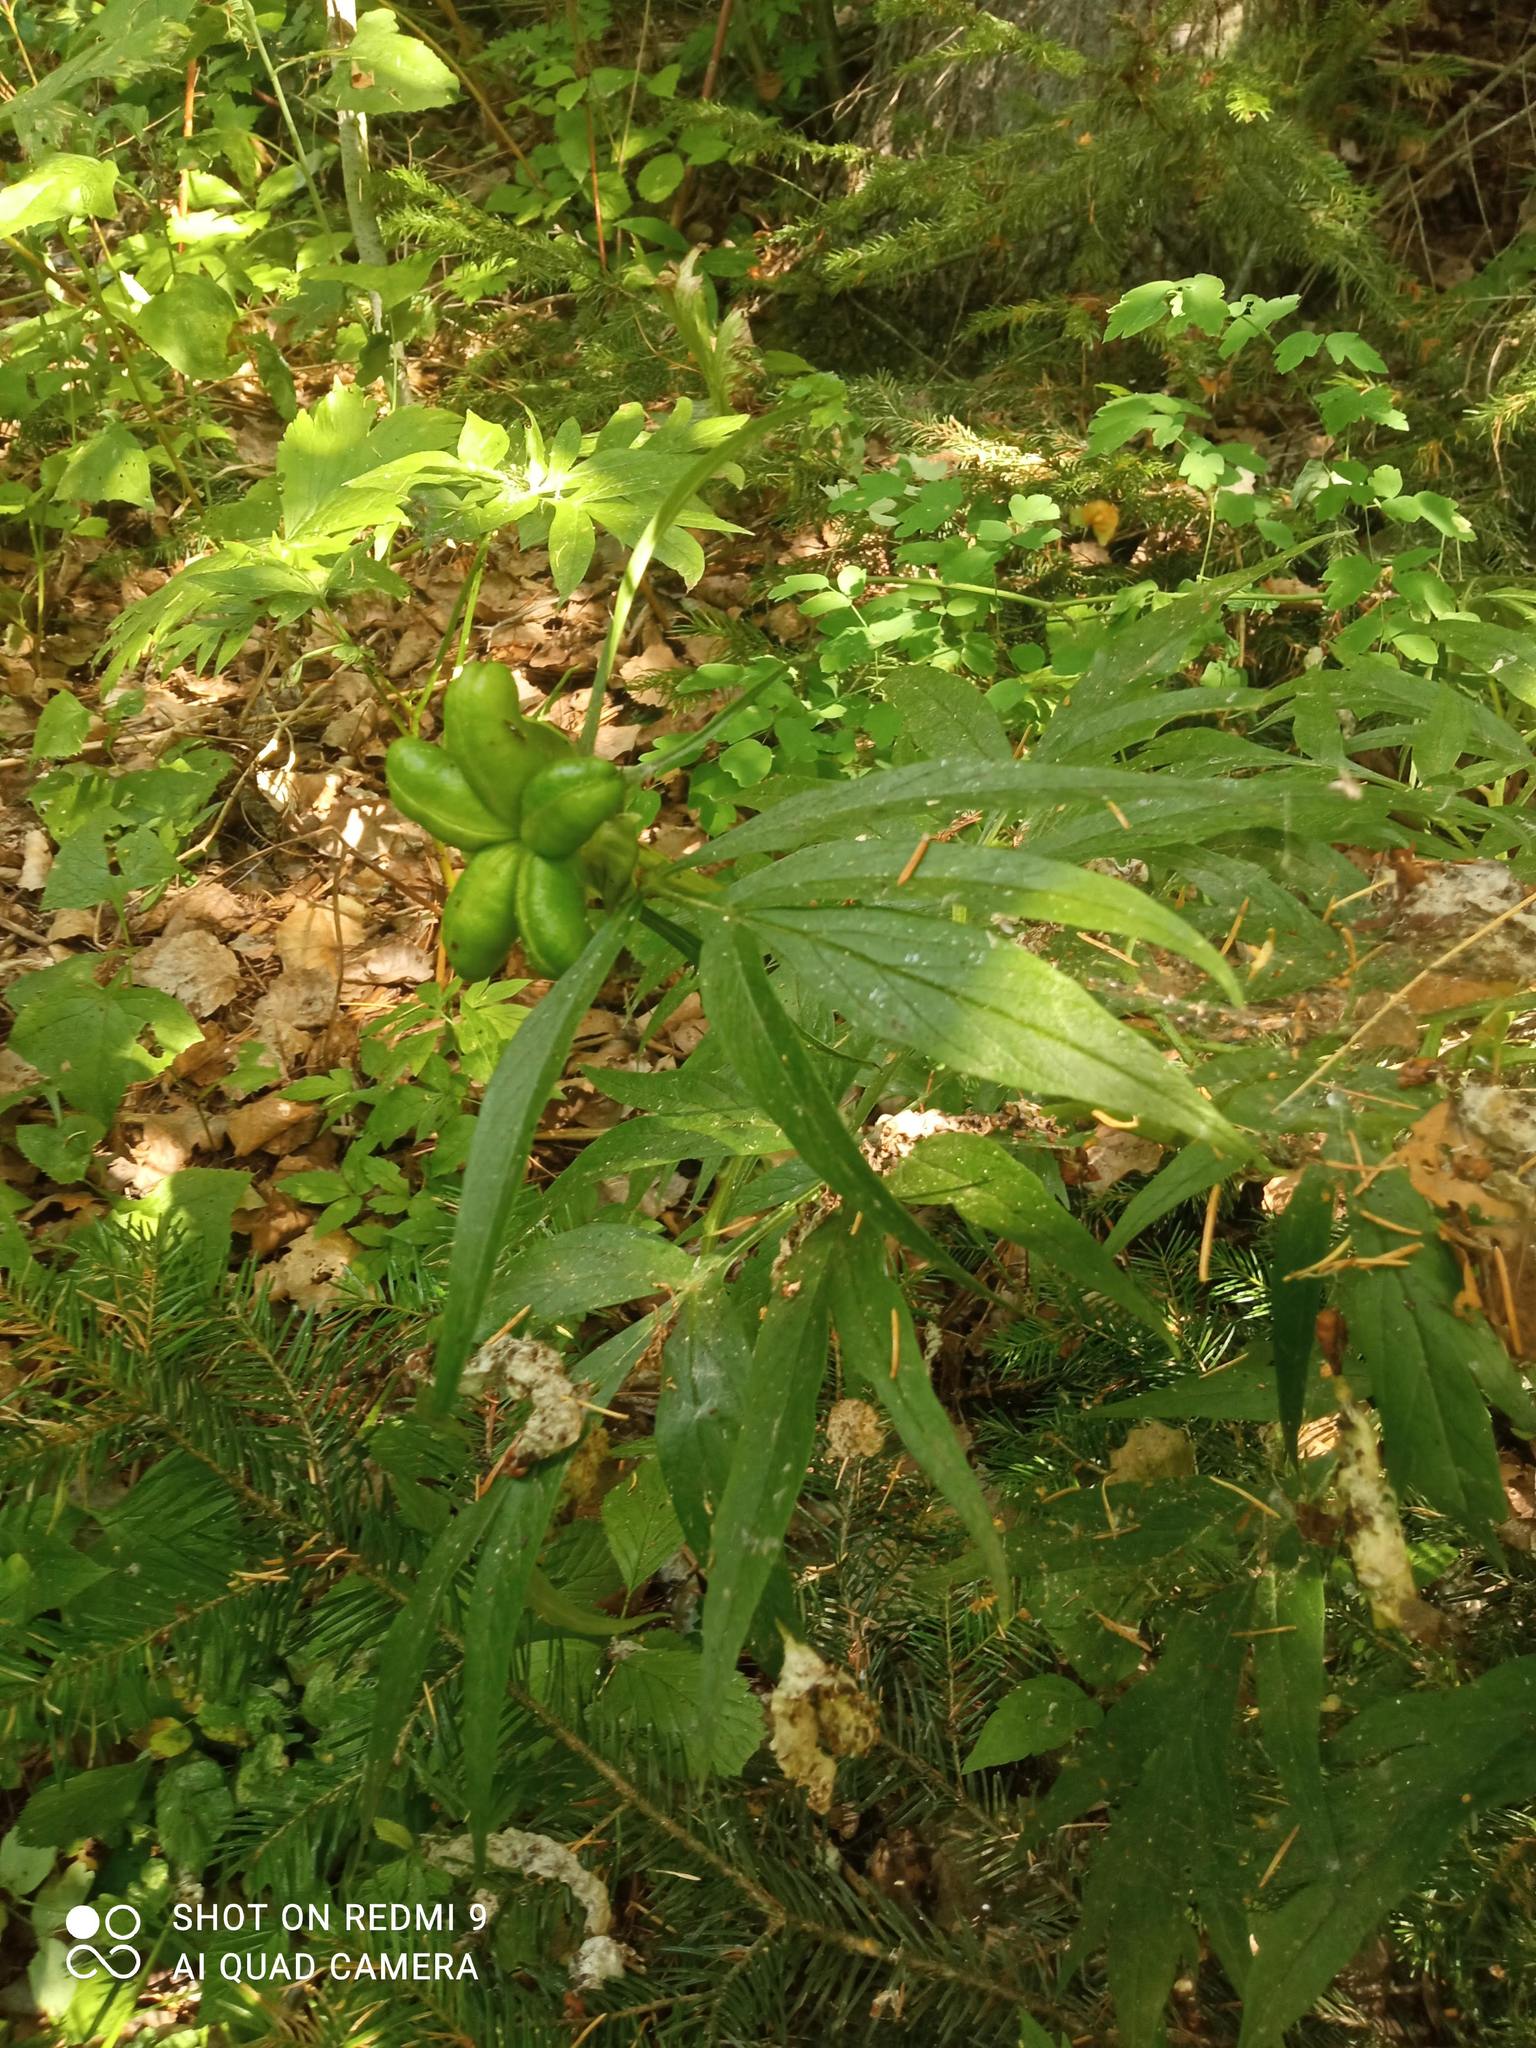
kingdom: Plantae
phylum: Tracheophyta
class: Magnoliopsida
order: Saxifragales
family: Paeoniaceae
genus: Paeonia
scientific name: Paeonia anomala
